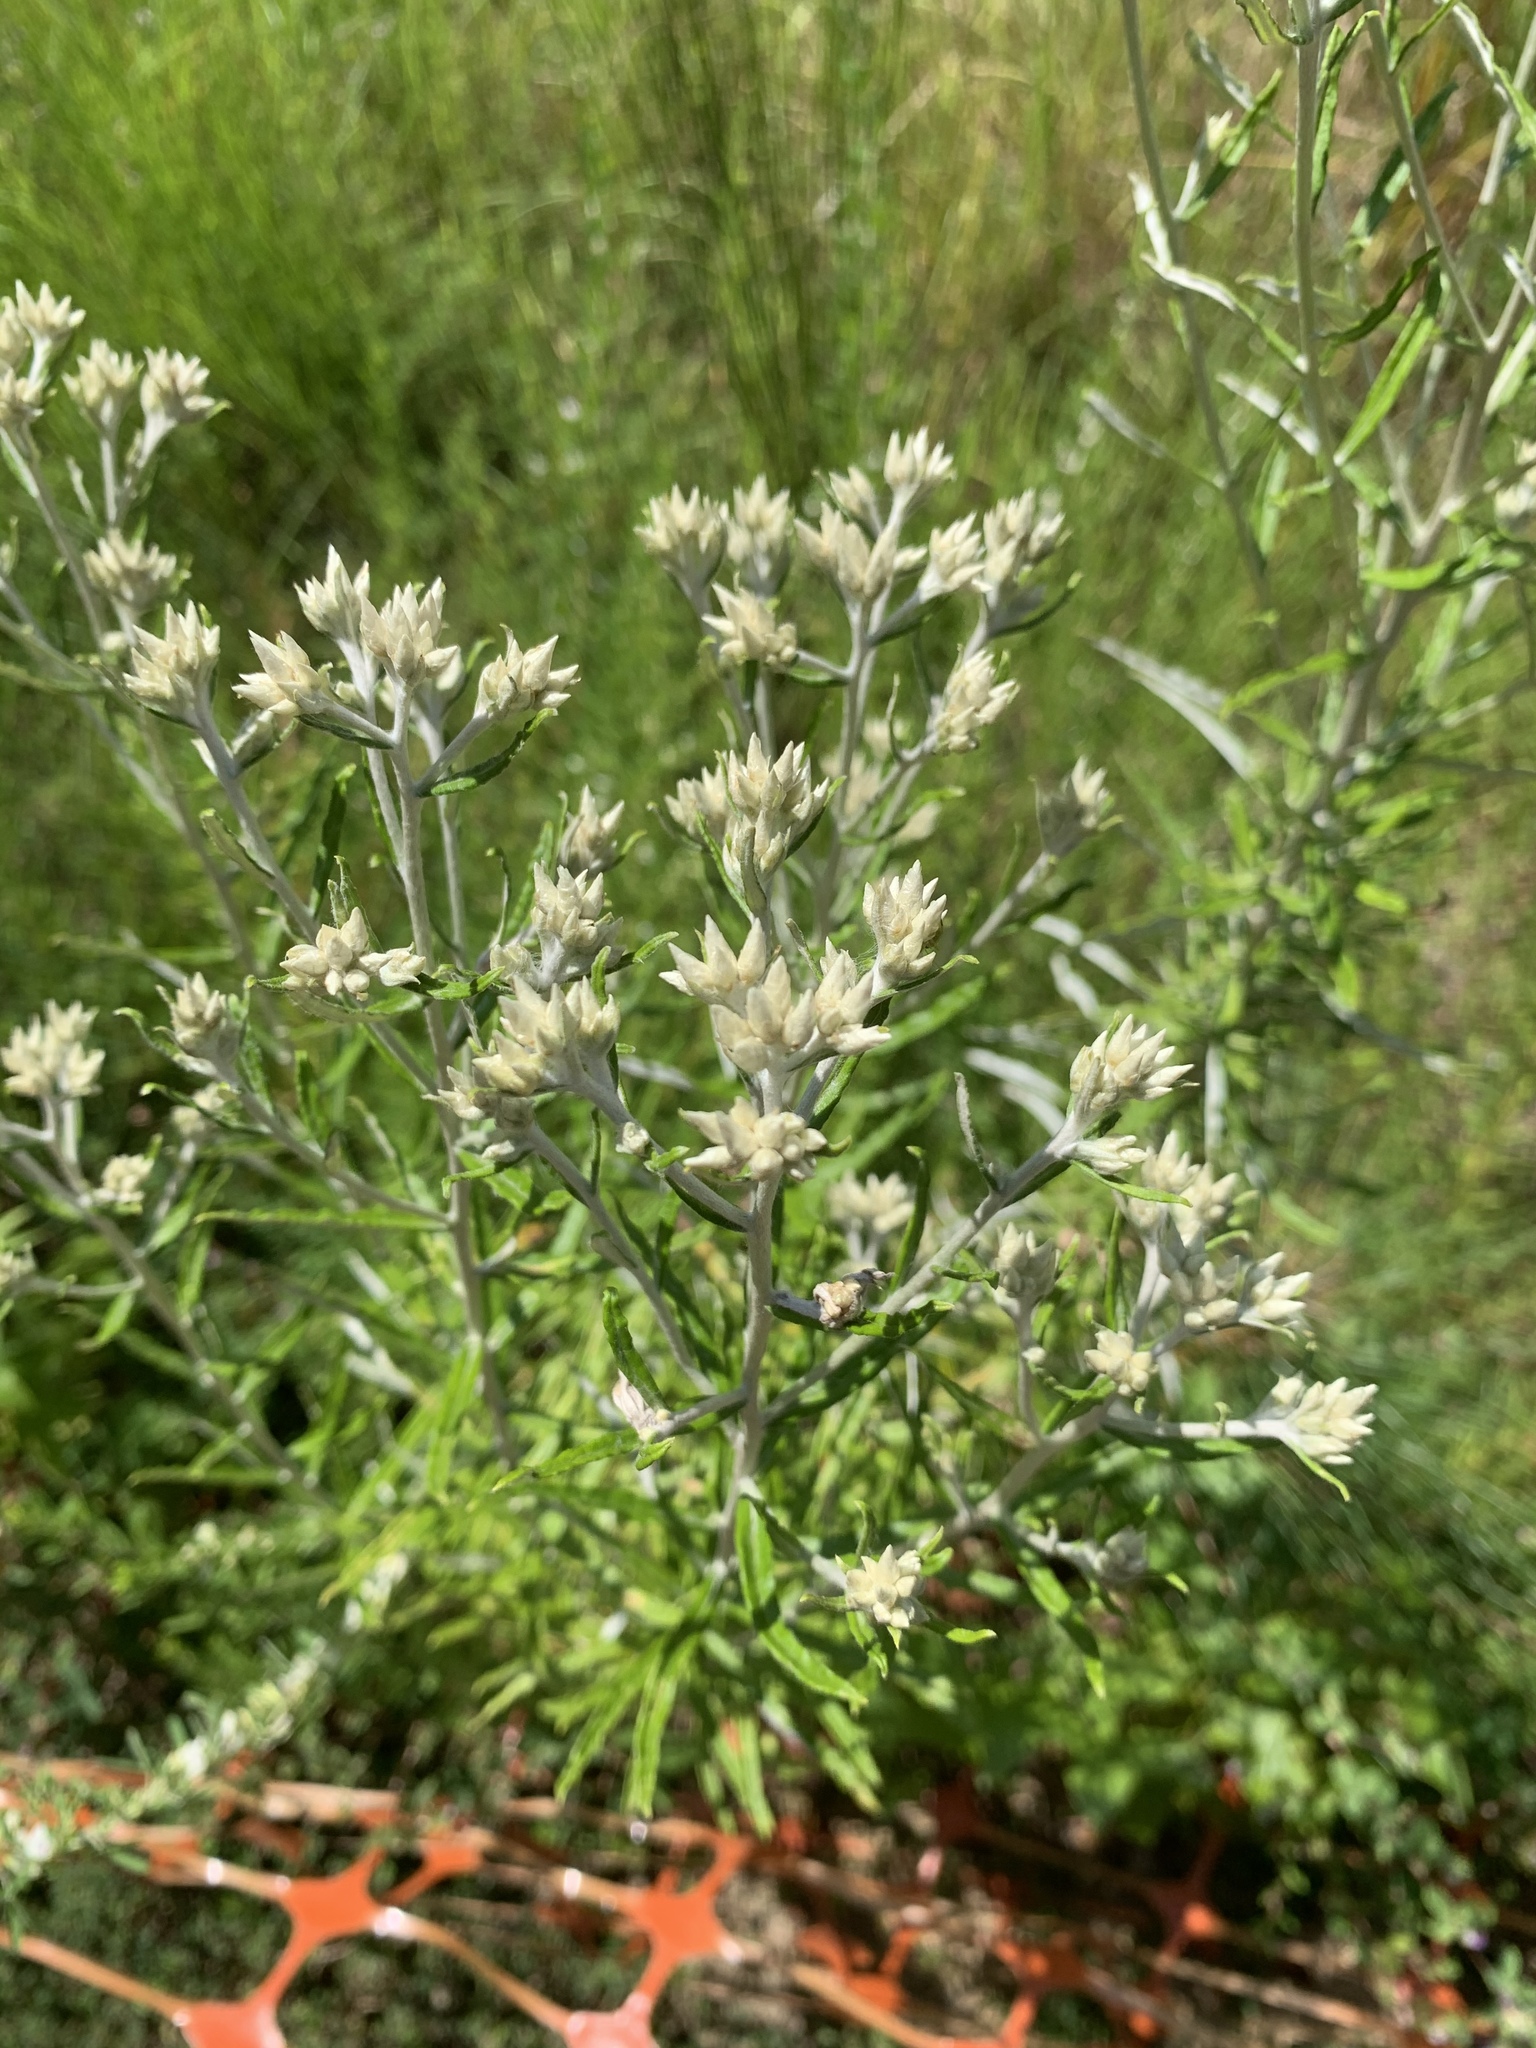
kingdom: Plantae
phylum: Tracheophyta
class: Magnoliopsida
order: Asterales
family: Asteraceae
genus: Pseudognaphalium
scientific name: Pseudognaphalium obtusifolium
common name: Eastern rabbit-tobacco
